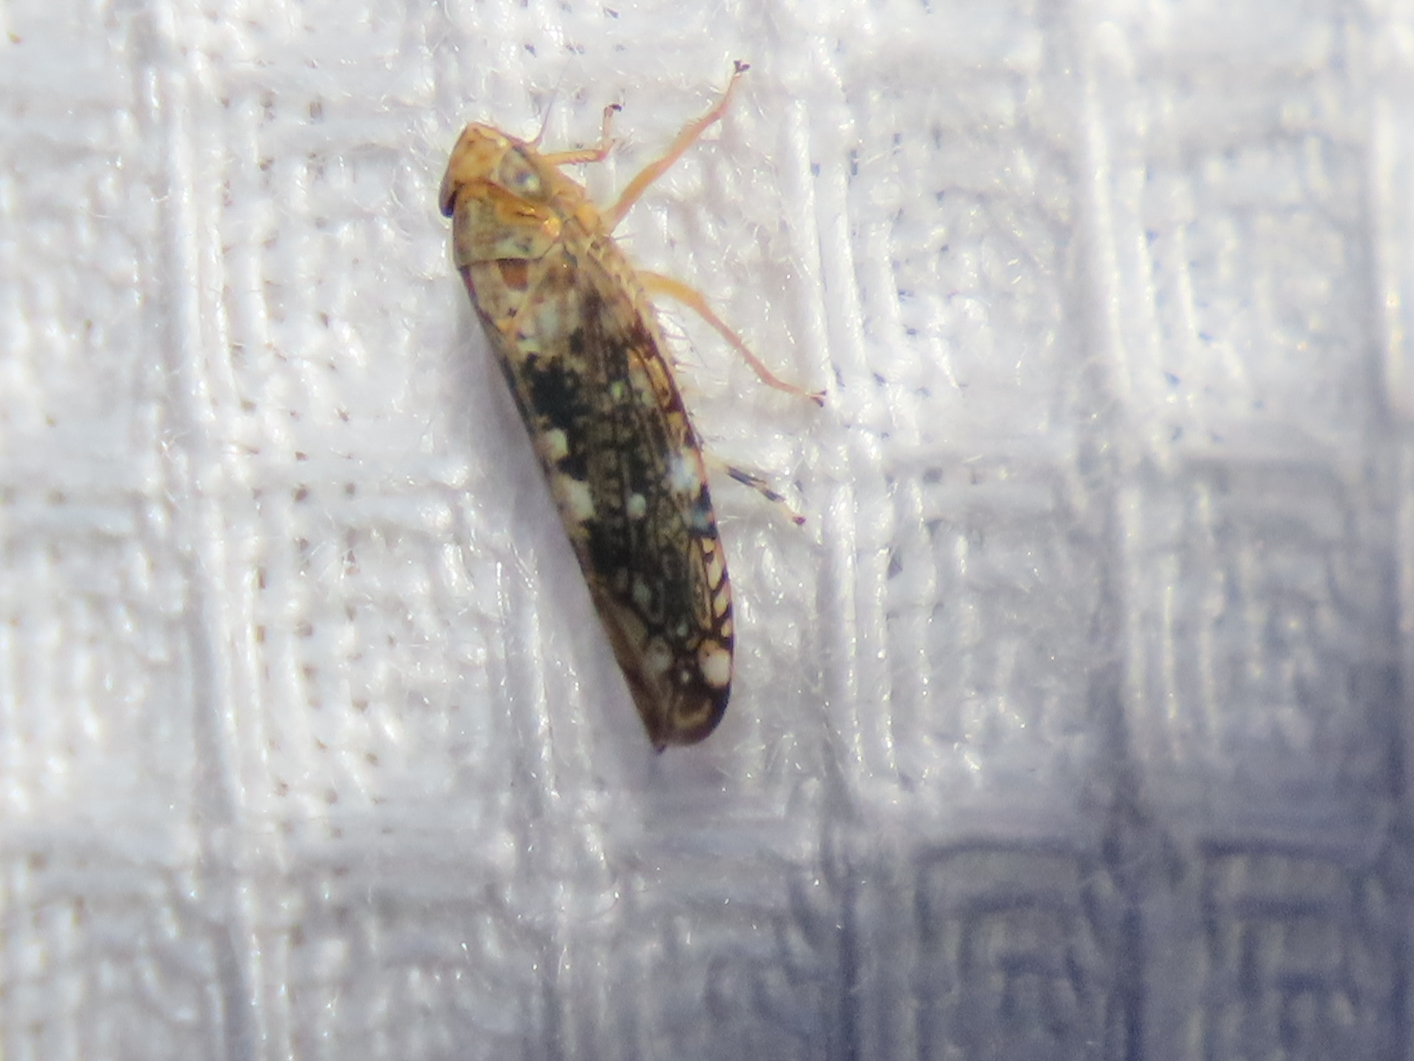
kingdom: Animalia
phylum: Arthropoda
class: Insecta
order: Hemiptera
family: Cicadellidae
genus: Prescottia
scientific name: Prescottia lobata
